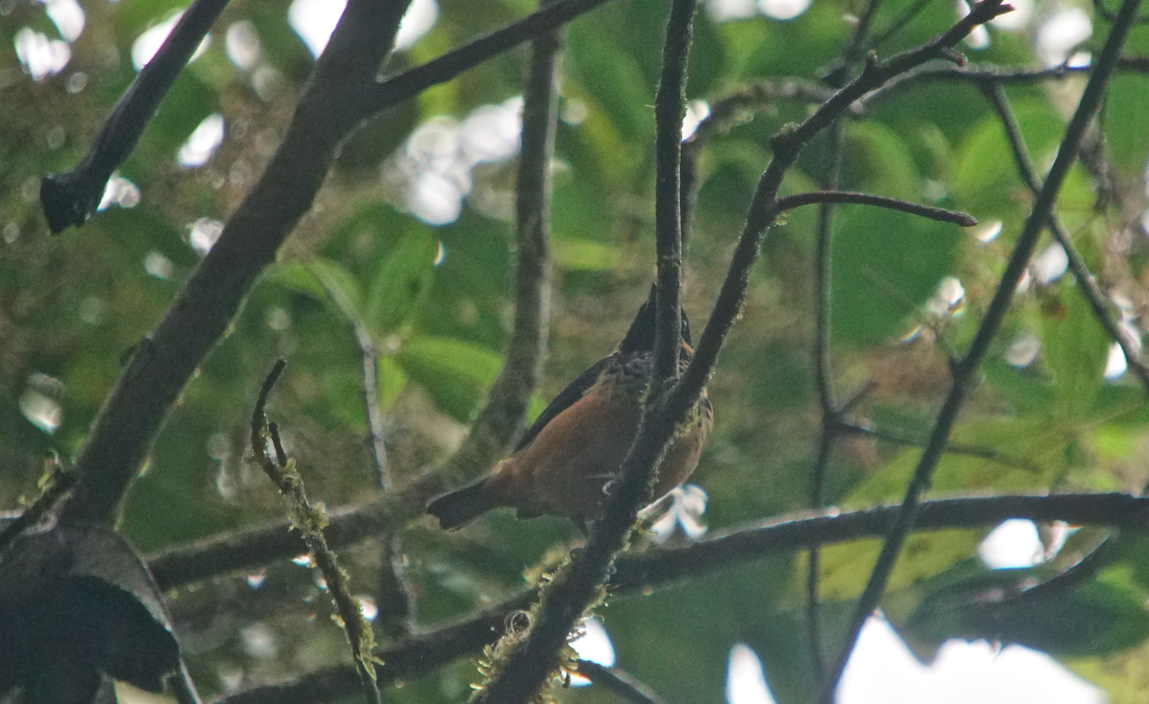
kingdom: Animalia
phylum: Chordata
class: Aves
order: Passeriformes
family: Thraupidae
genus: Tangara
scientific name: Tangara dowii
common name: Spangle-cheeked tanager
